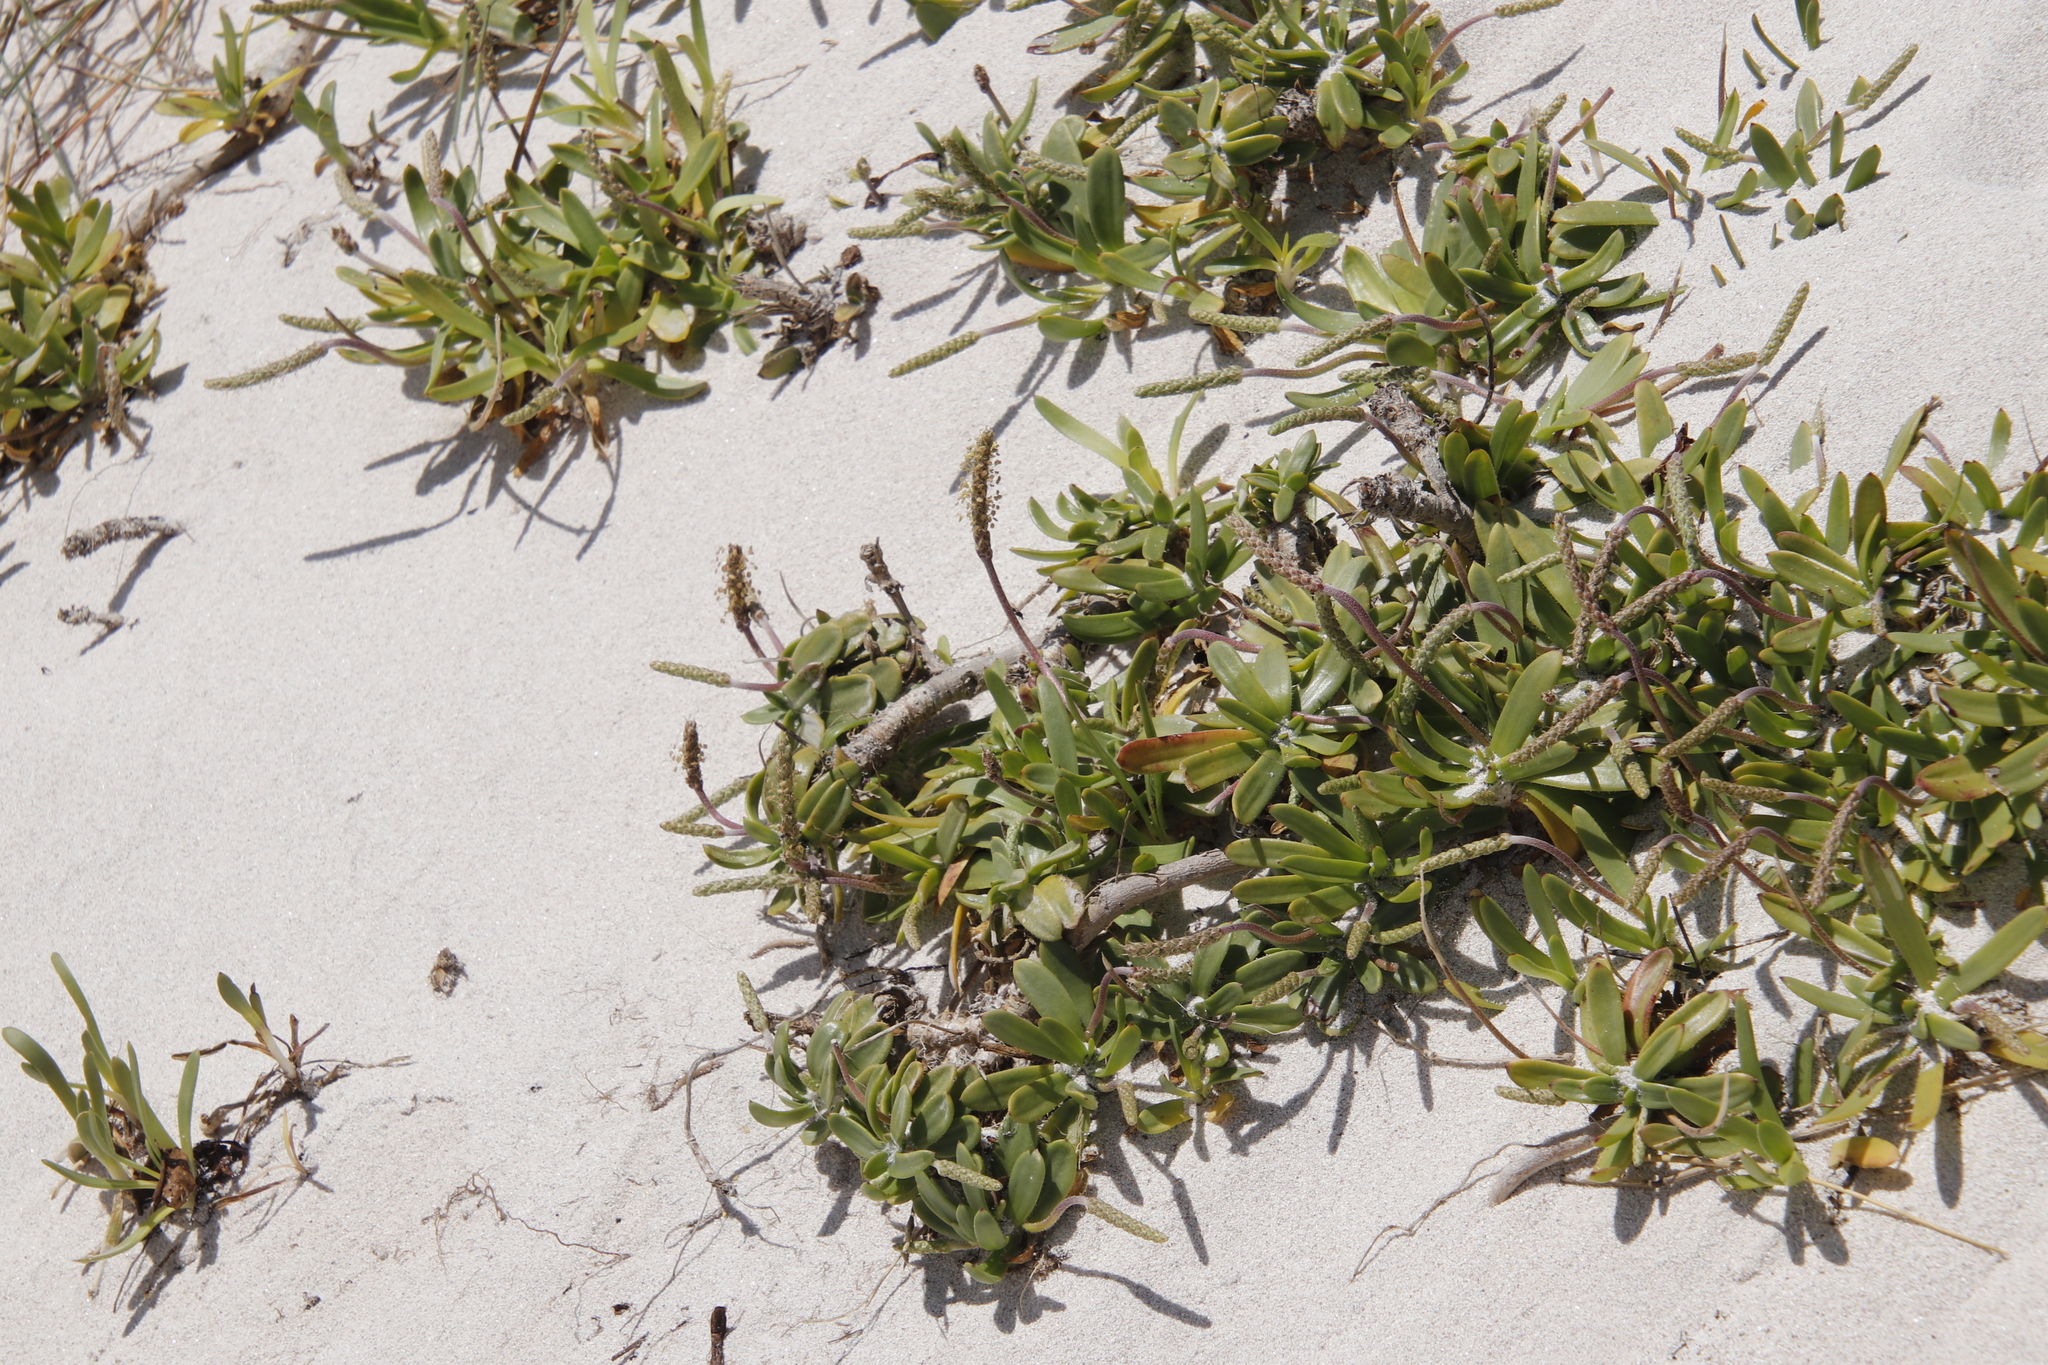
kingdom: Plantae
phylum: Tracheophyta
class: Magnoliopsida
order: Lamiales
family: Plantaginaceae
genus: Plantago
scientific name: Plantago carnosa
